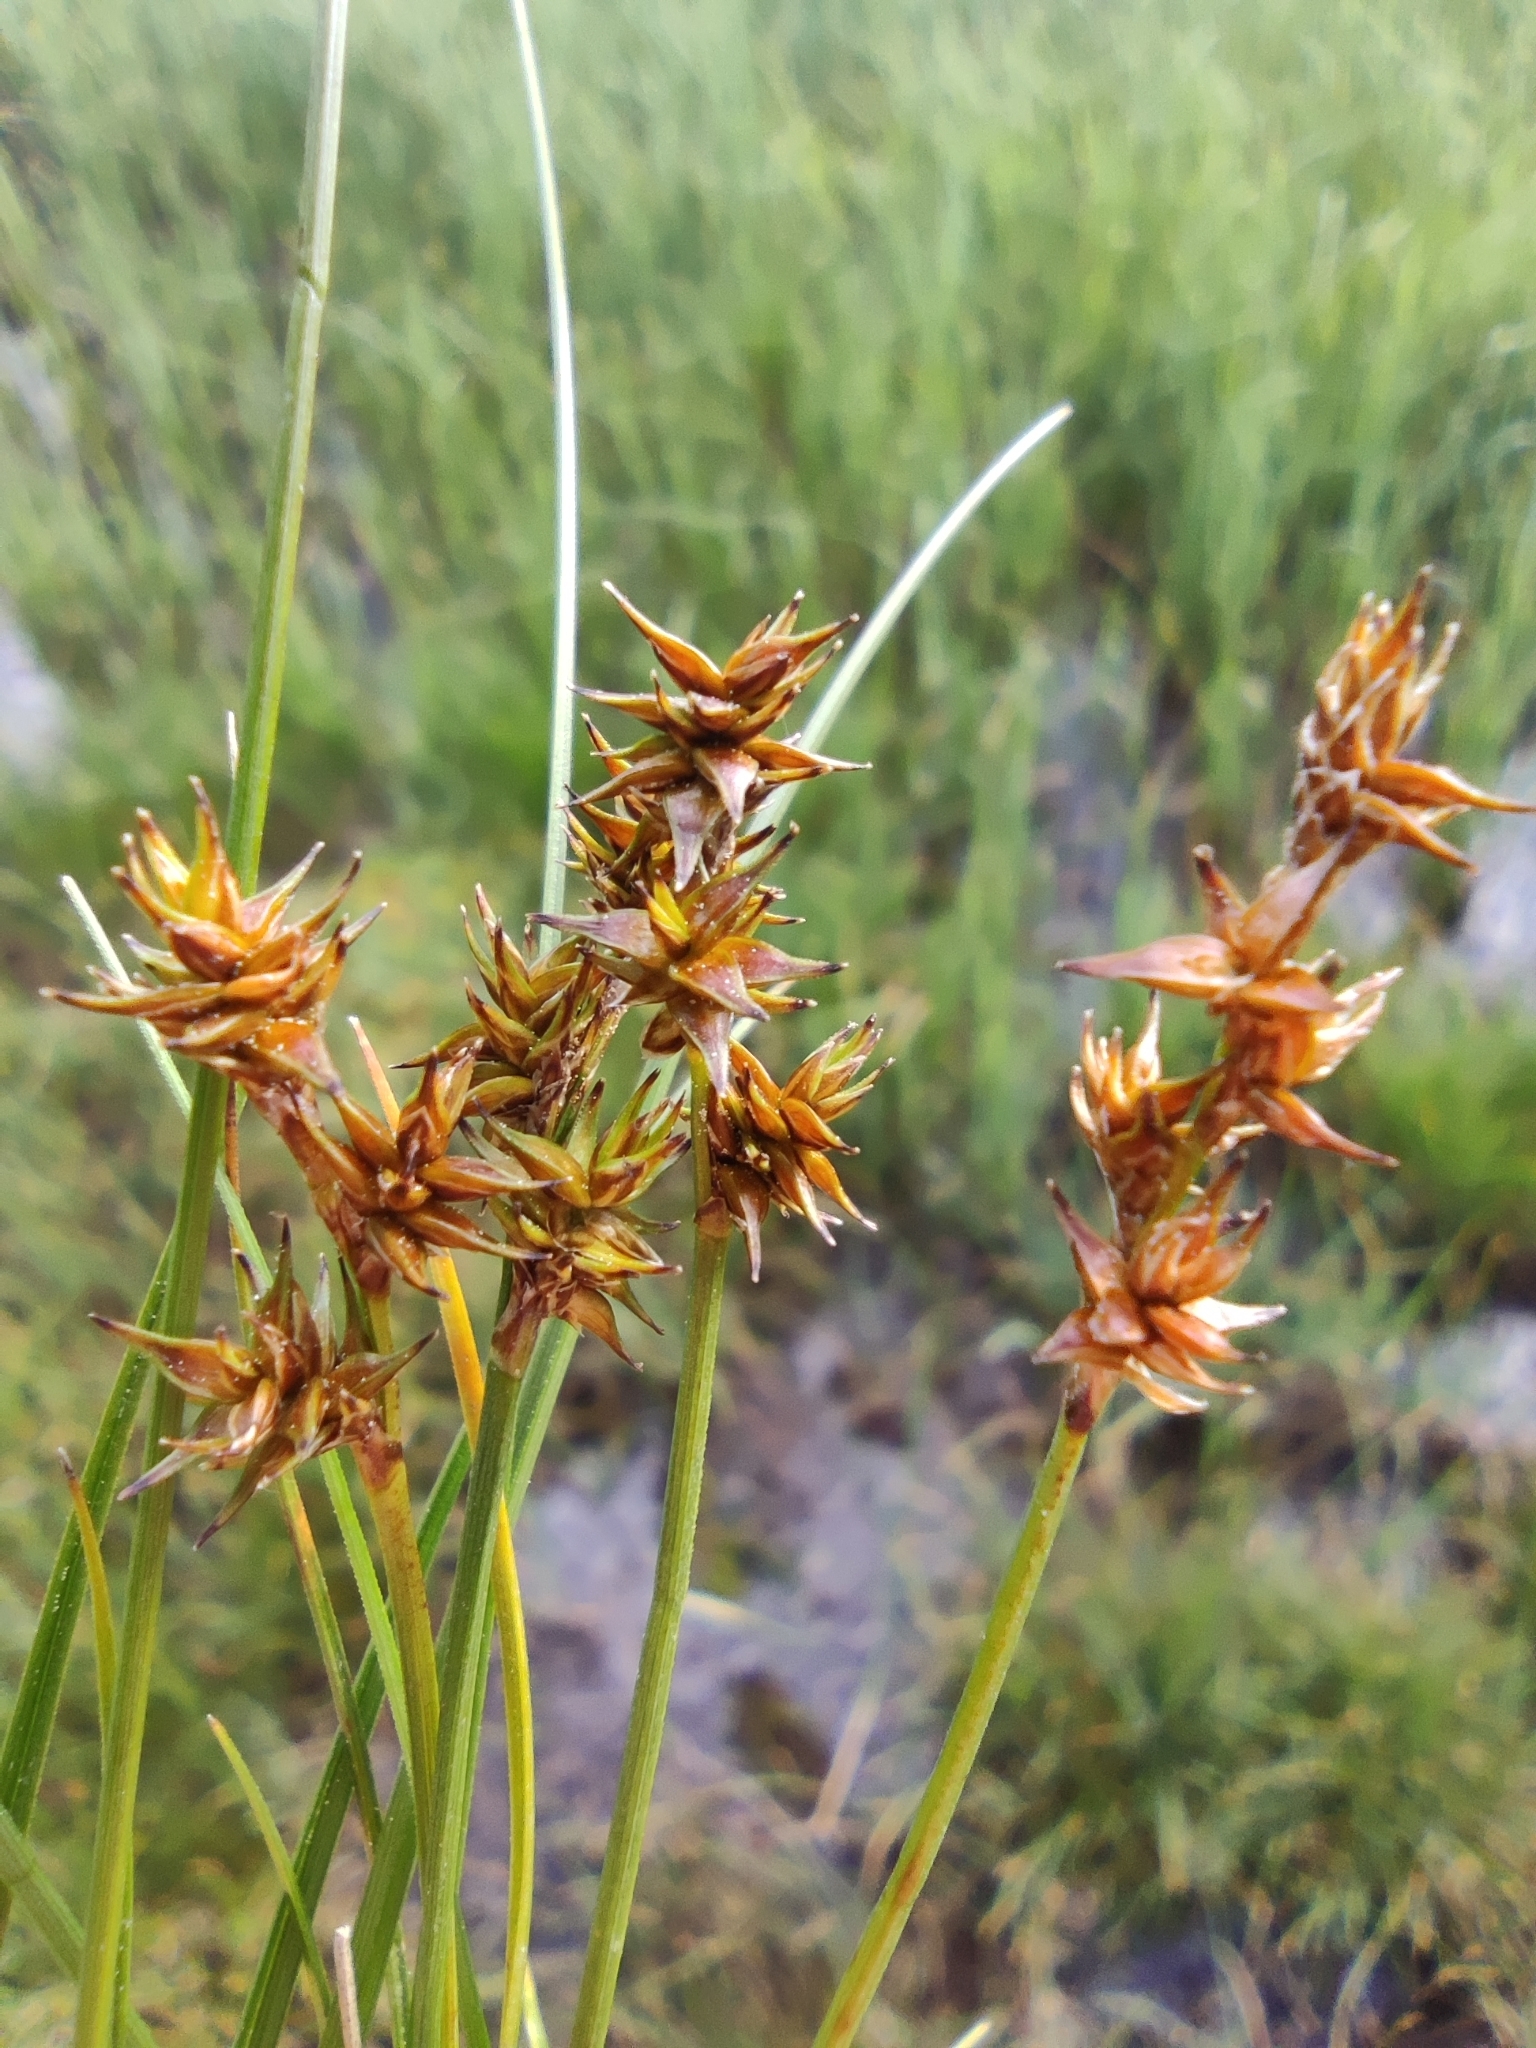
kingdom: Plantae
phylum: Tracheophyta
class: Liliopsida
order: Poales
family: Cyperaceae
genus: Carex
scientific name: Carex echinata
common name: Star sedge
